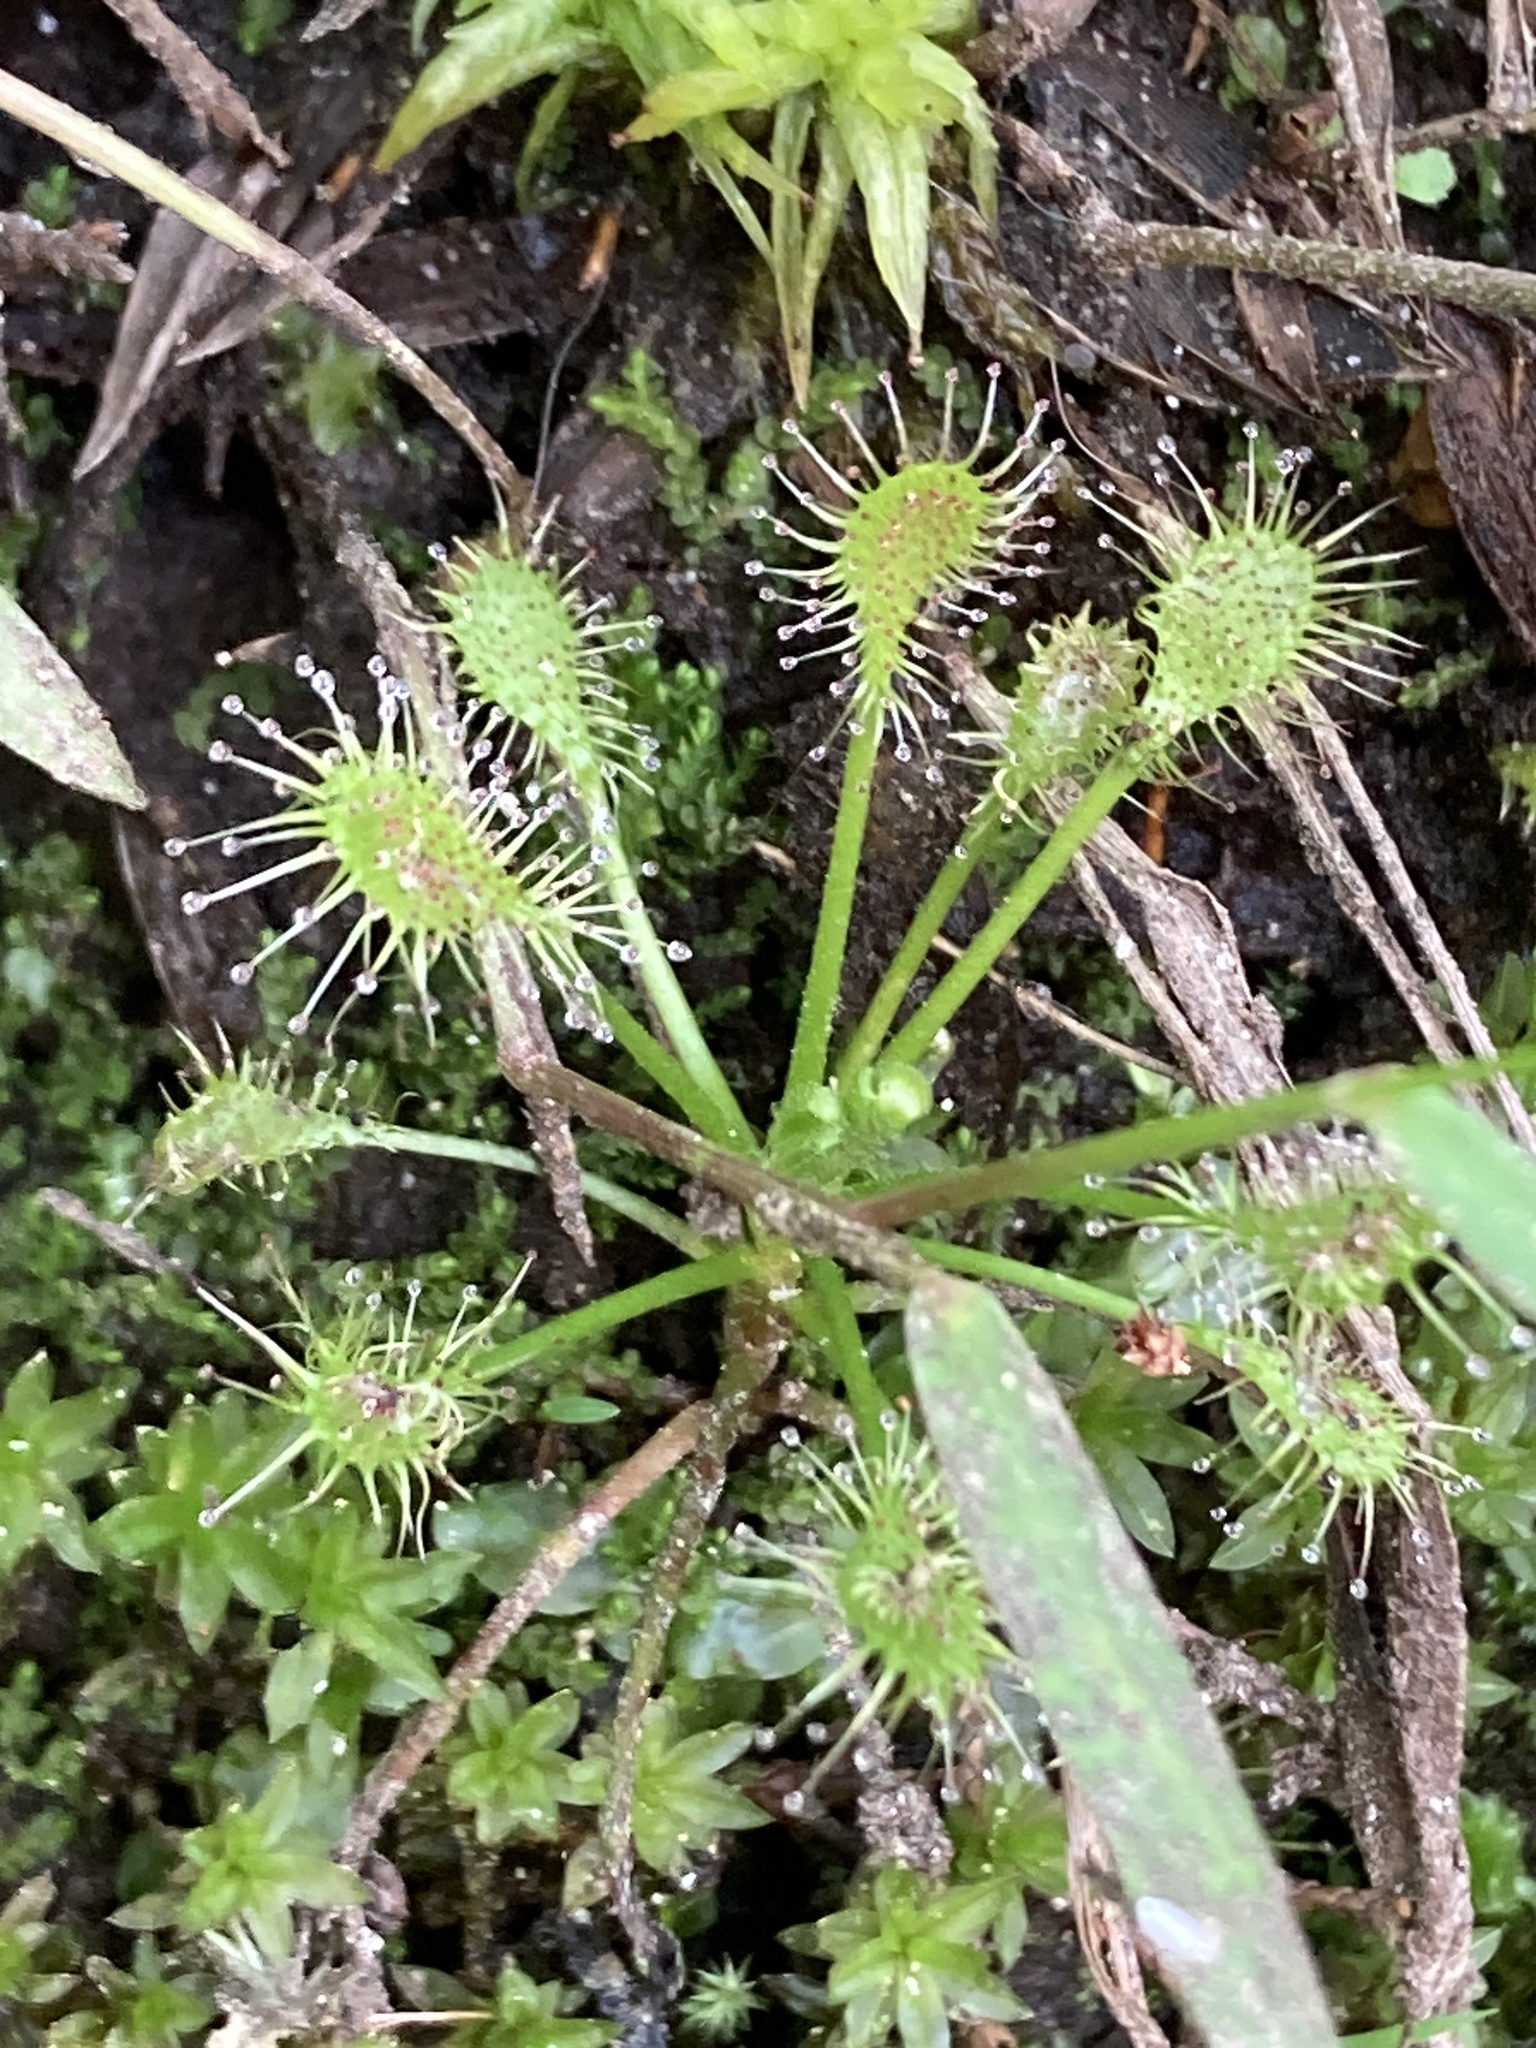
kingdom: Plantae
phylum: Tracheophyta
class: Magnoliopsida
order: Caryophyllales
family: Droseraceae
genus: Drosera
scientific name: Drosera intermedia
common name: Oblong-leaved sundew
